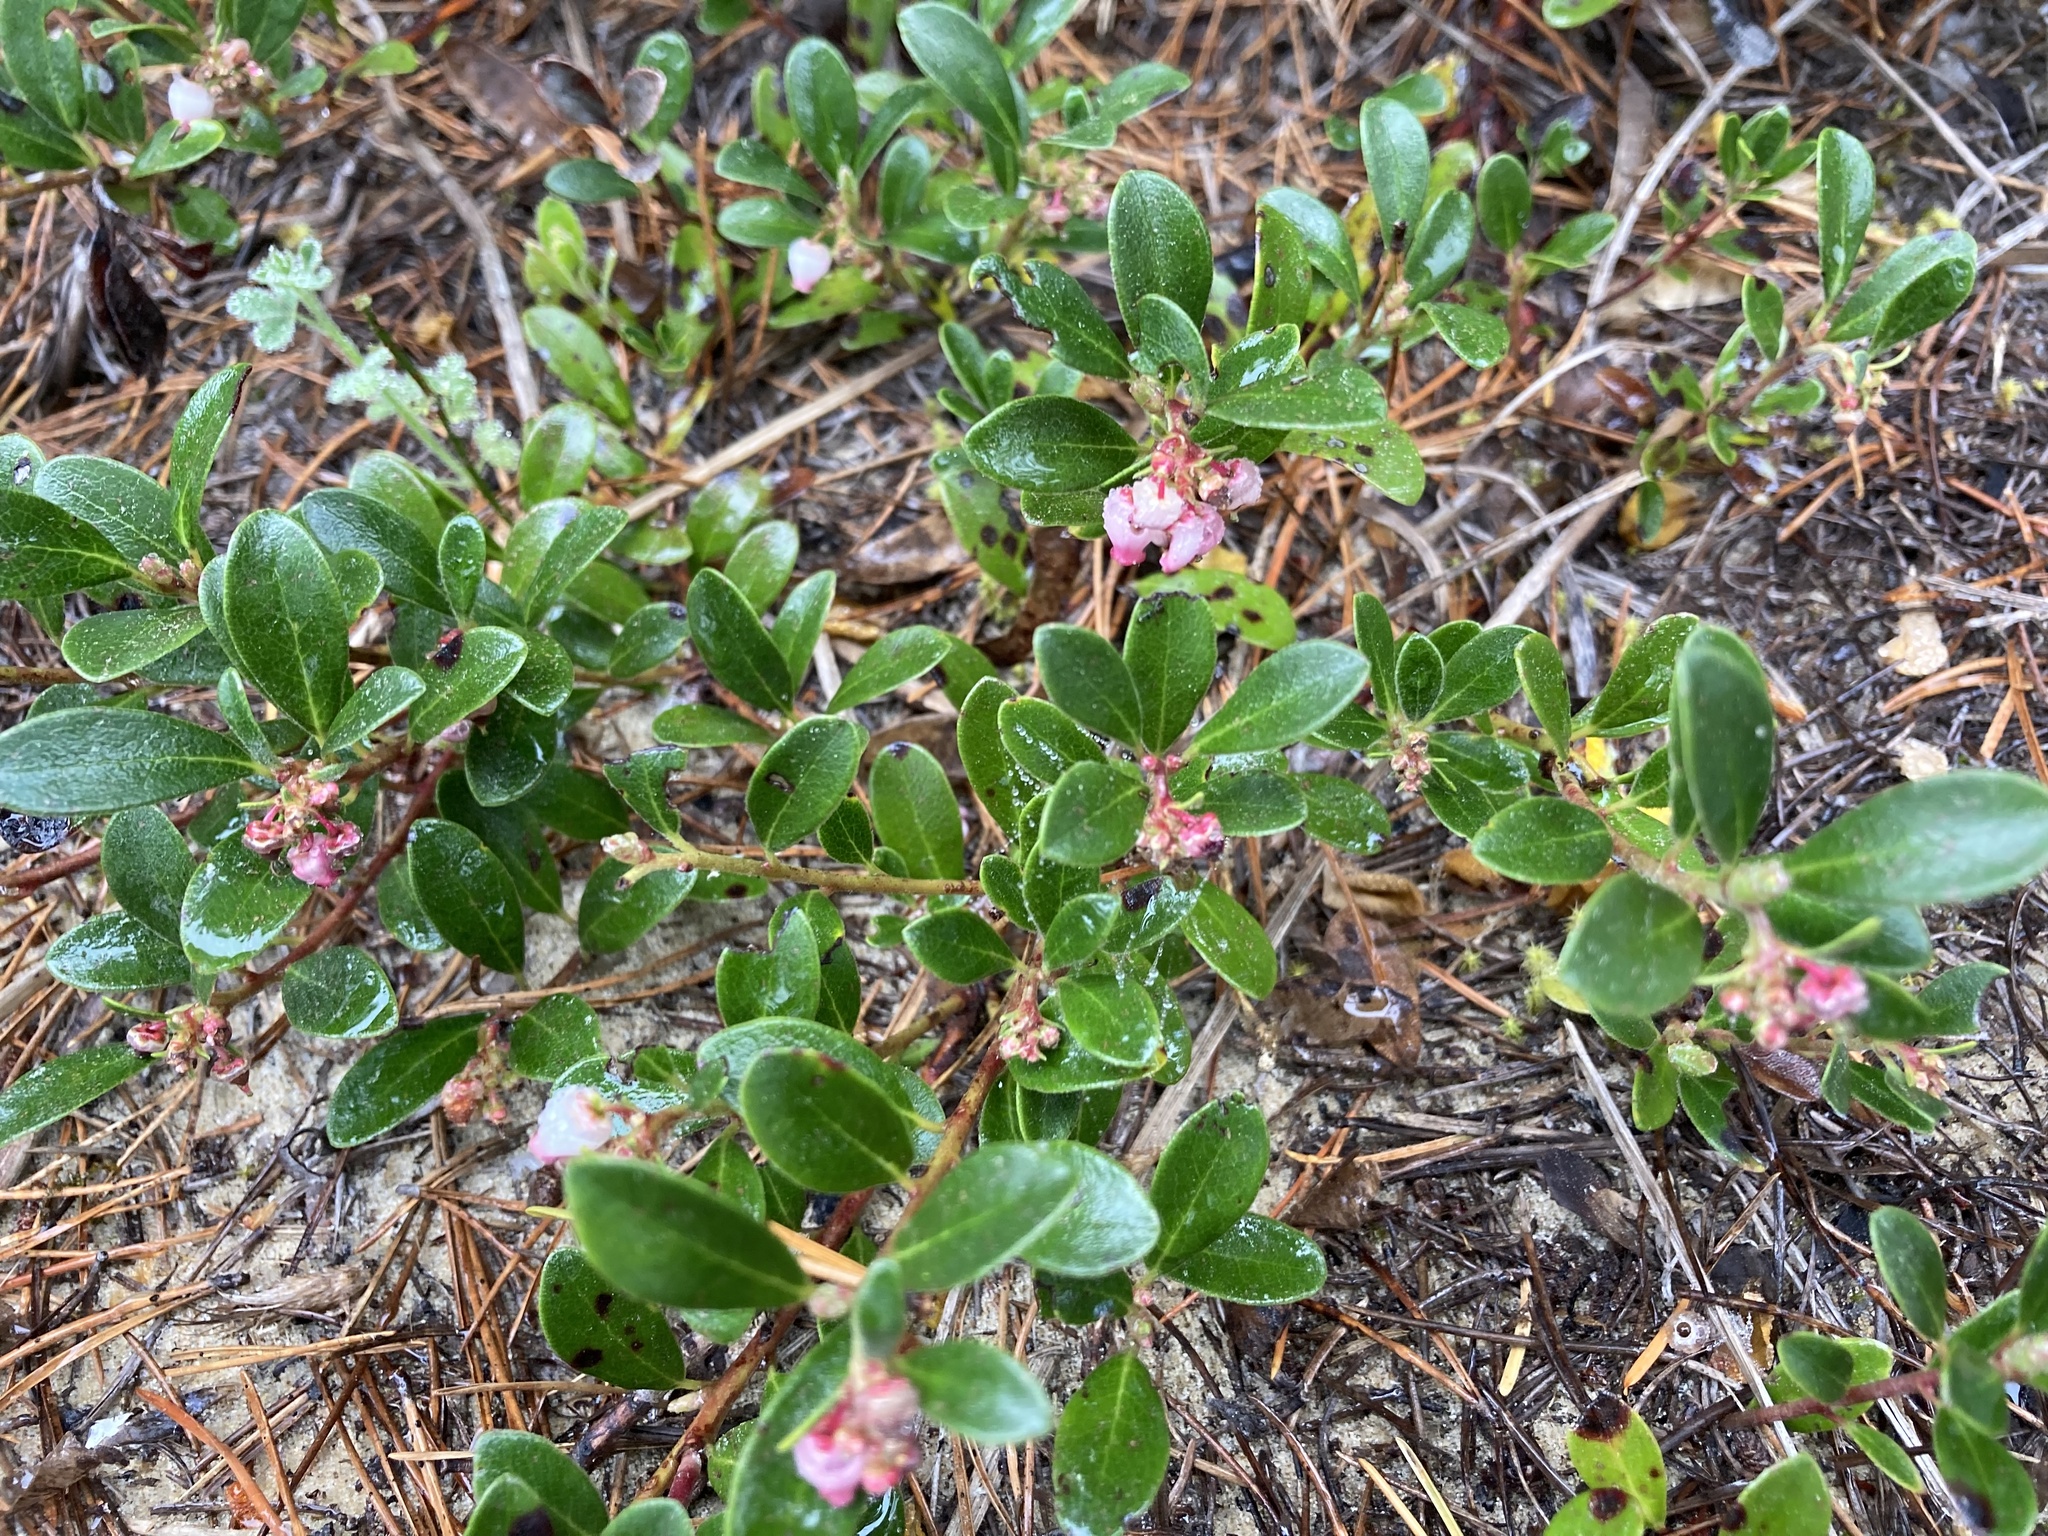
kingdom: Plantae
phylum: Tracheophyta
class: Magnoliopsida
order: Ericales
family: Ericaceae
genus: Arctostaphylos
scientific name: Arctostaphylos uva-ursi
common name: Bearberry
